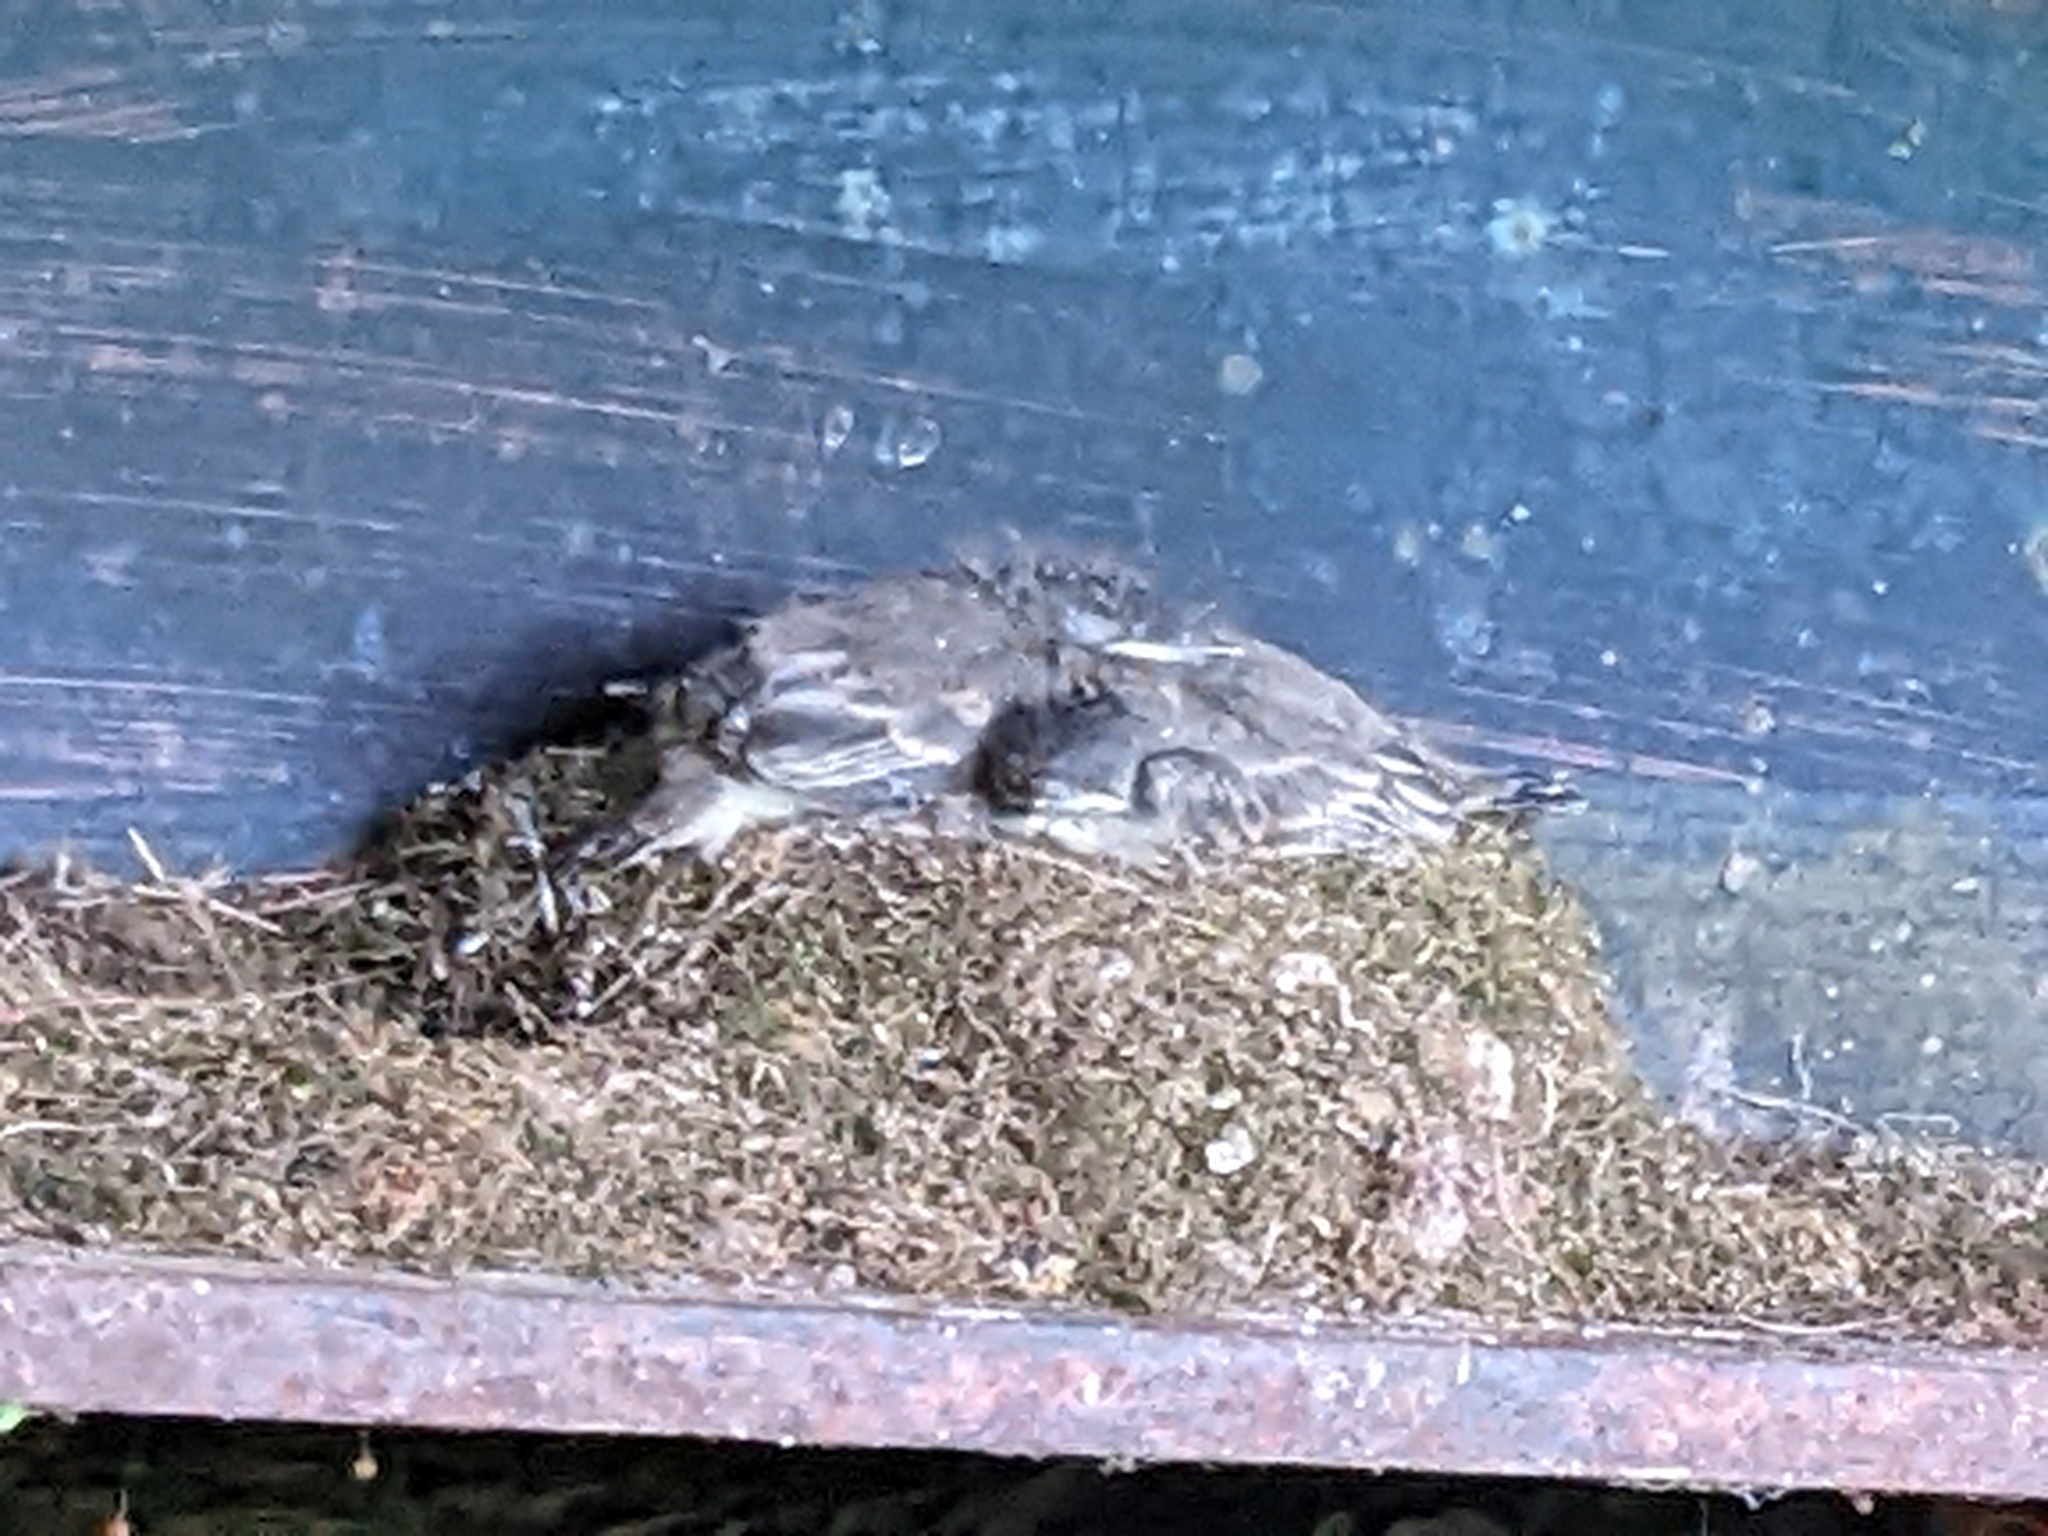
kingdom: Animalia
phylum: Chordata
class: Aves
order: Passeriformes
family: Tyrannidae
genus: Sayornis
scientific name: Sayornis phoebe
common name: Eastern phoebe
